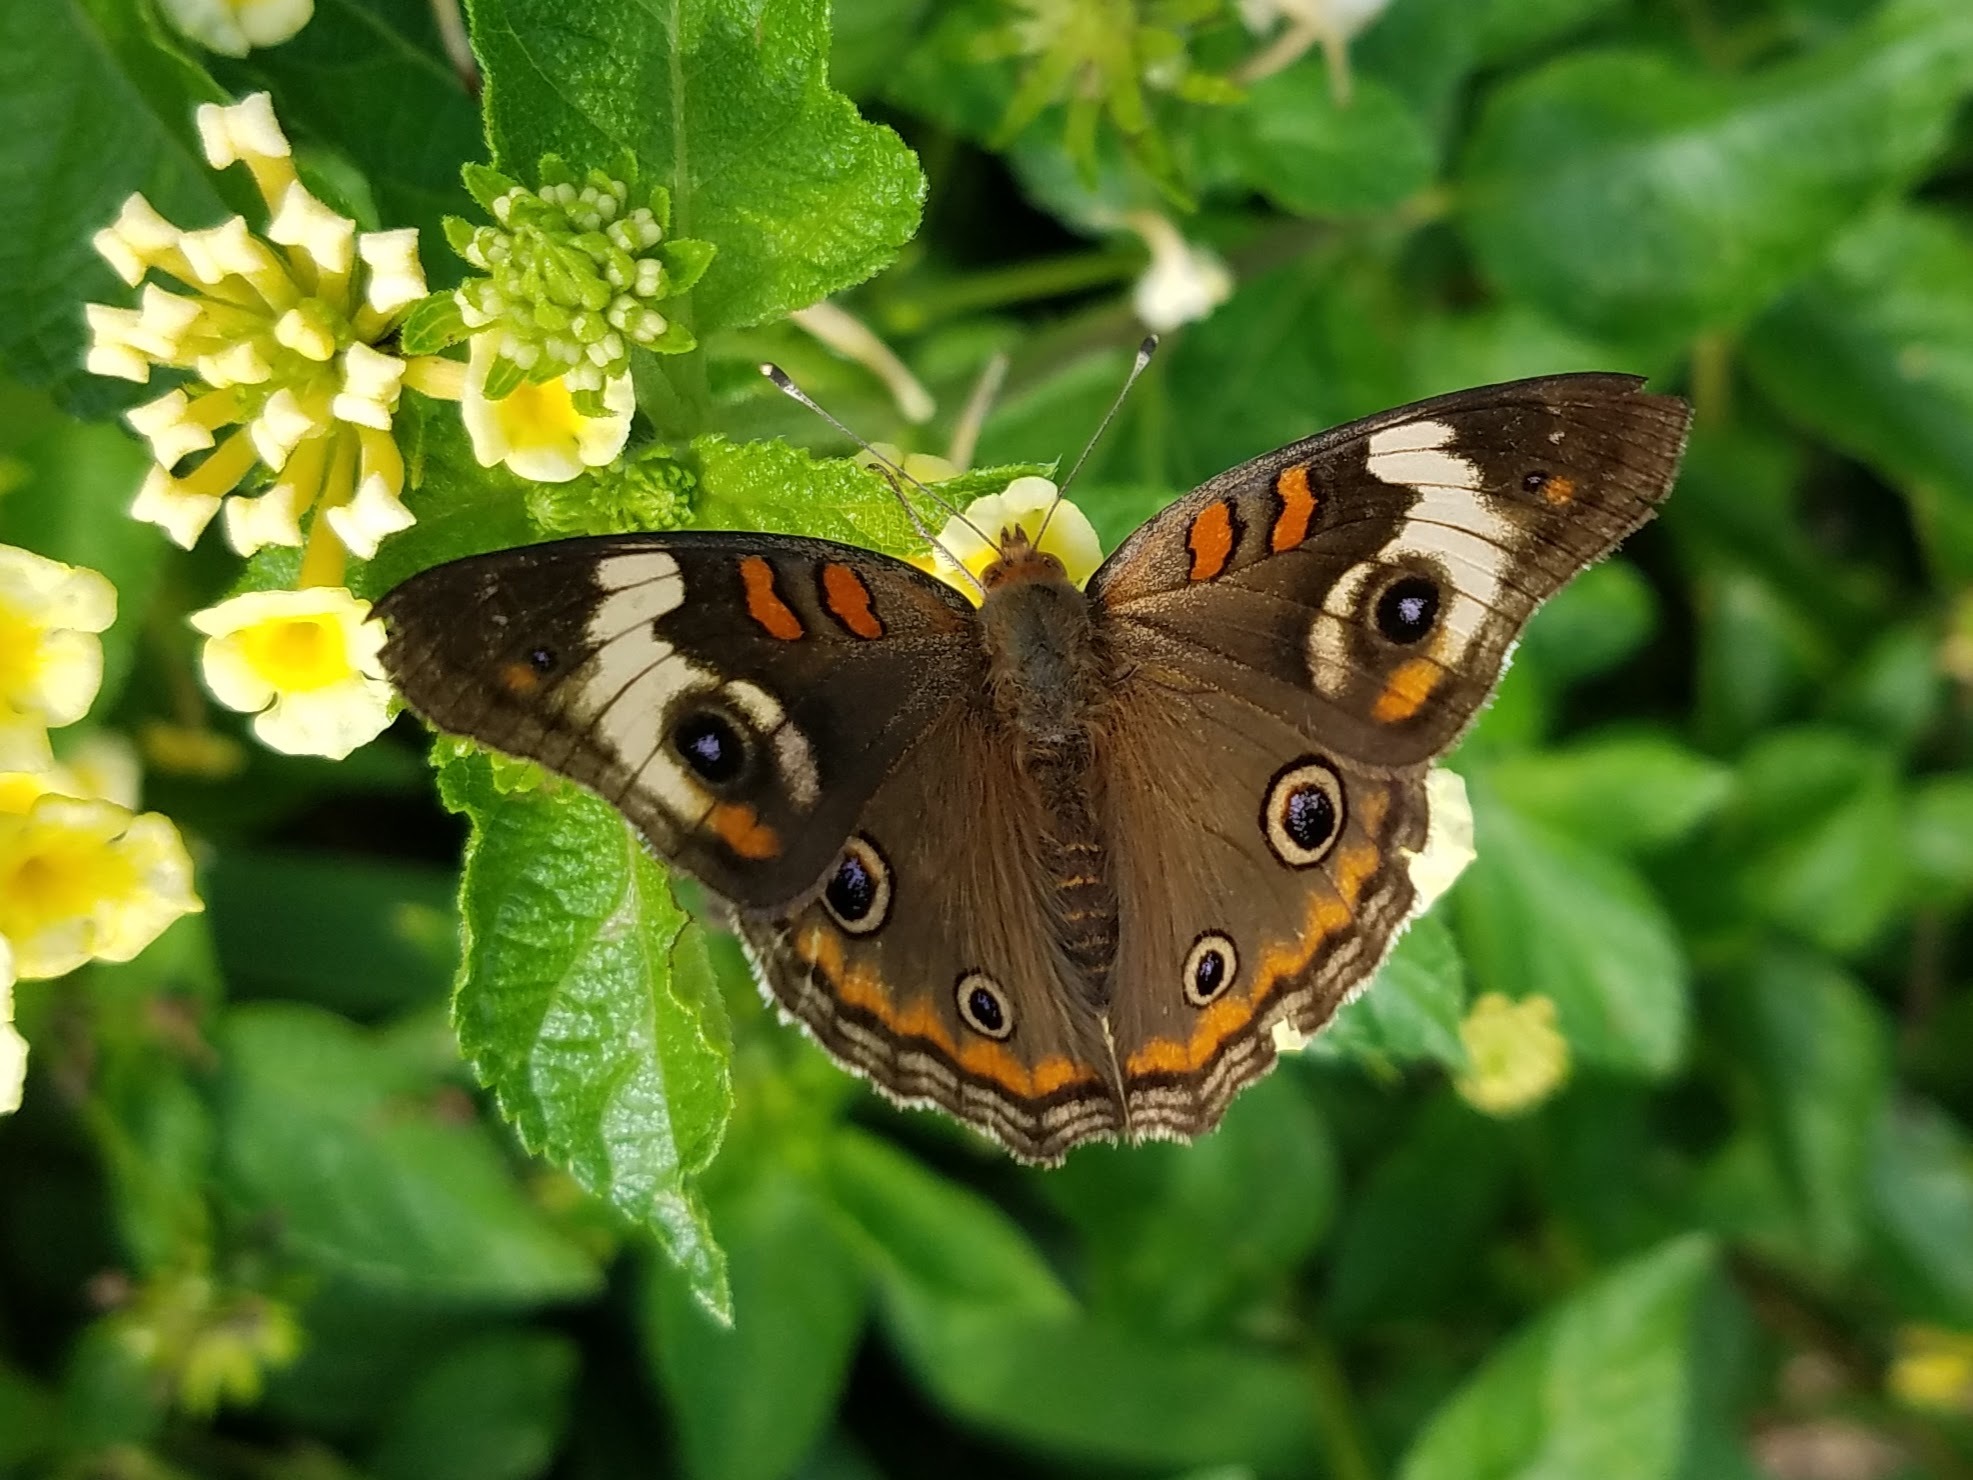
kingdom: Animalia
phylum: Arthropoda
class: Insecta
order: Lepidoptera
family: Nymphalidae
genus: Junonia
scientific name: Junonia coenia
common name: Common buckeye
